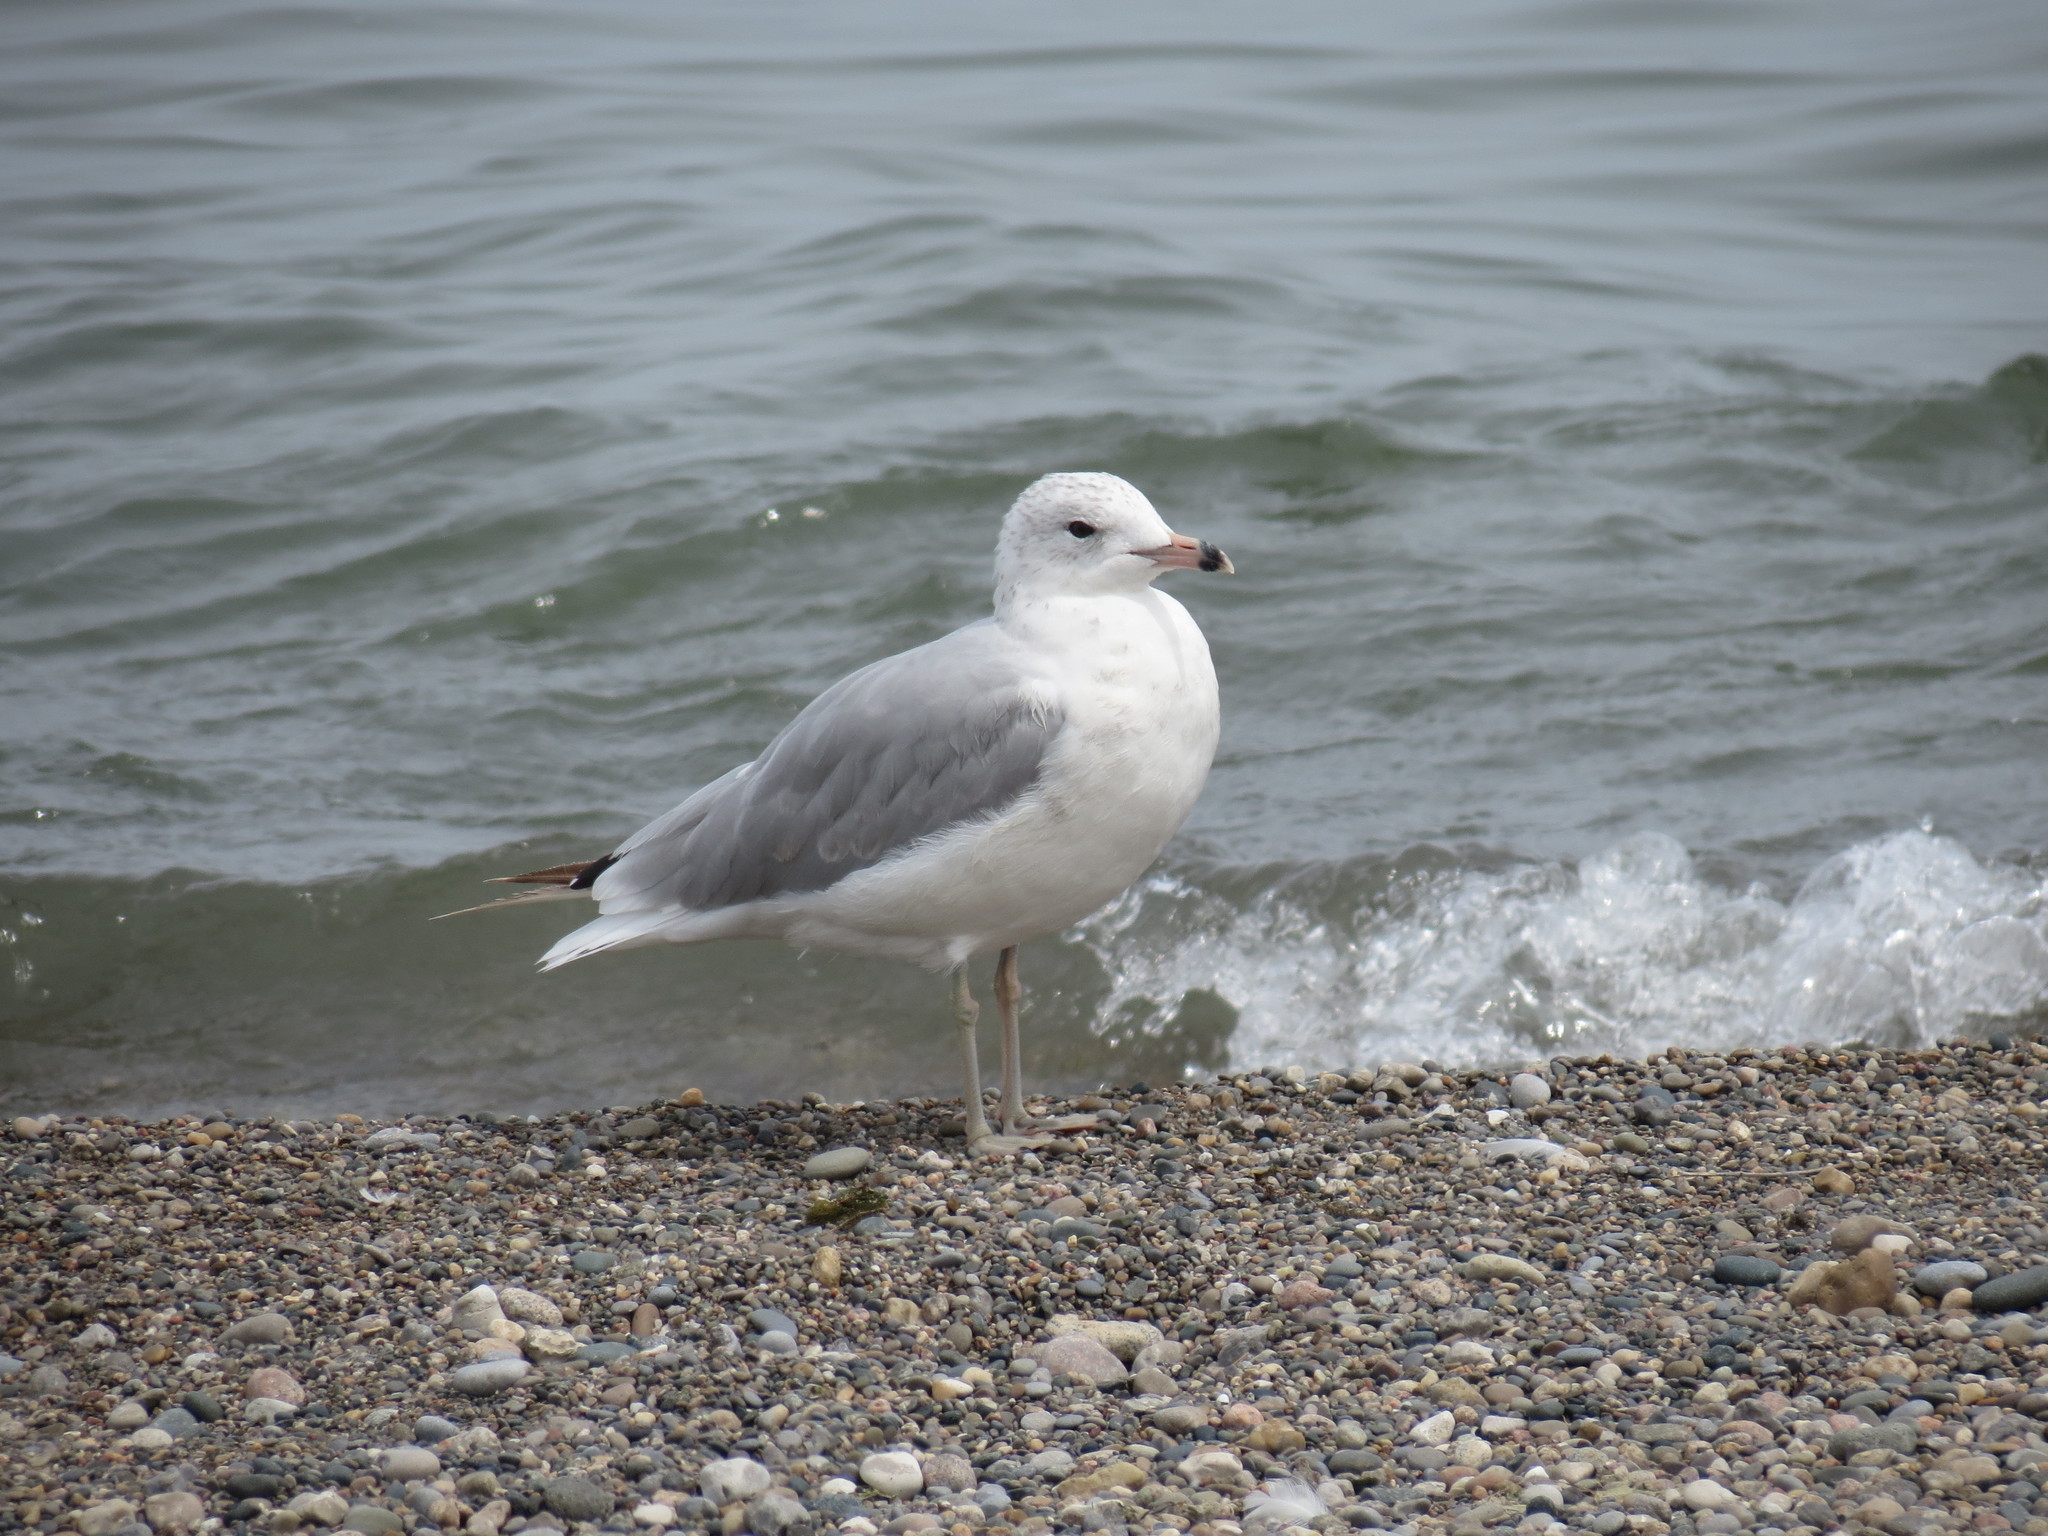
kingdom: Animalia
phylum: Chordata
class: Aves
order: Charadriiformes
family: Laridae
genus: Larus
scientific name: Larus delawarensis
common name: Ring-billed gull
